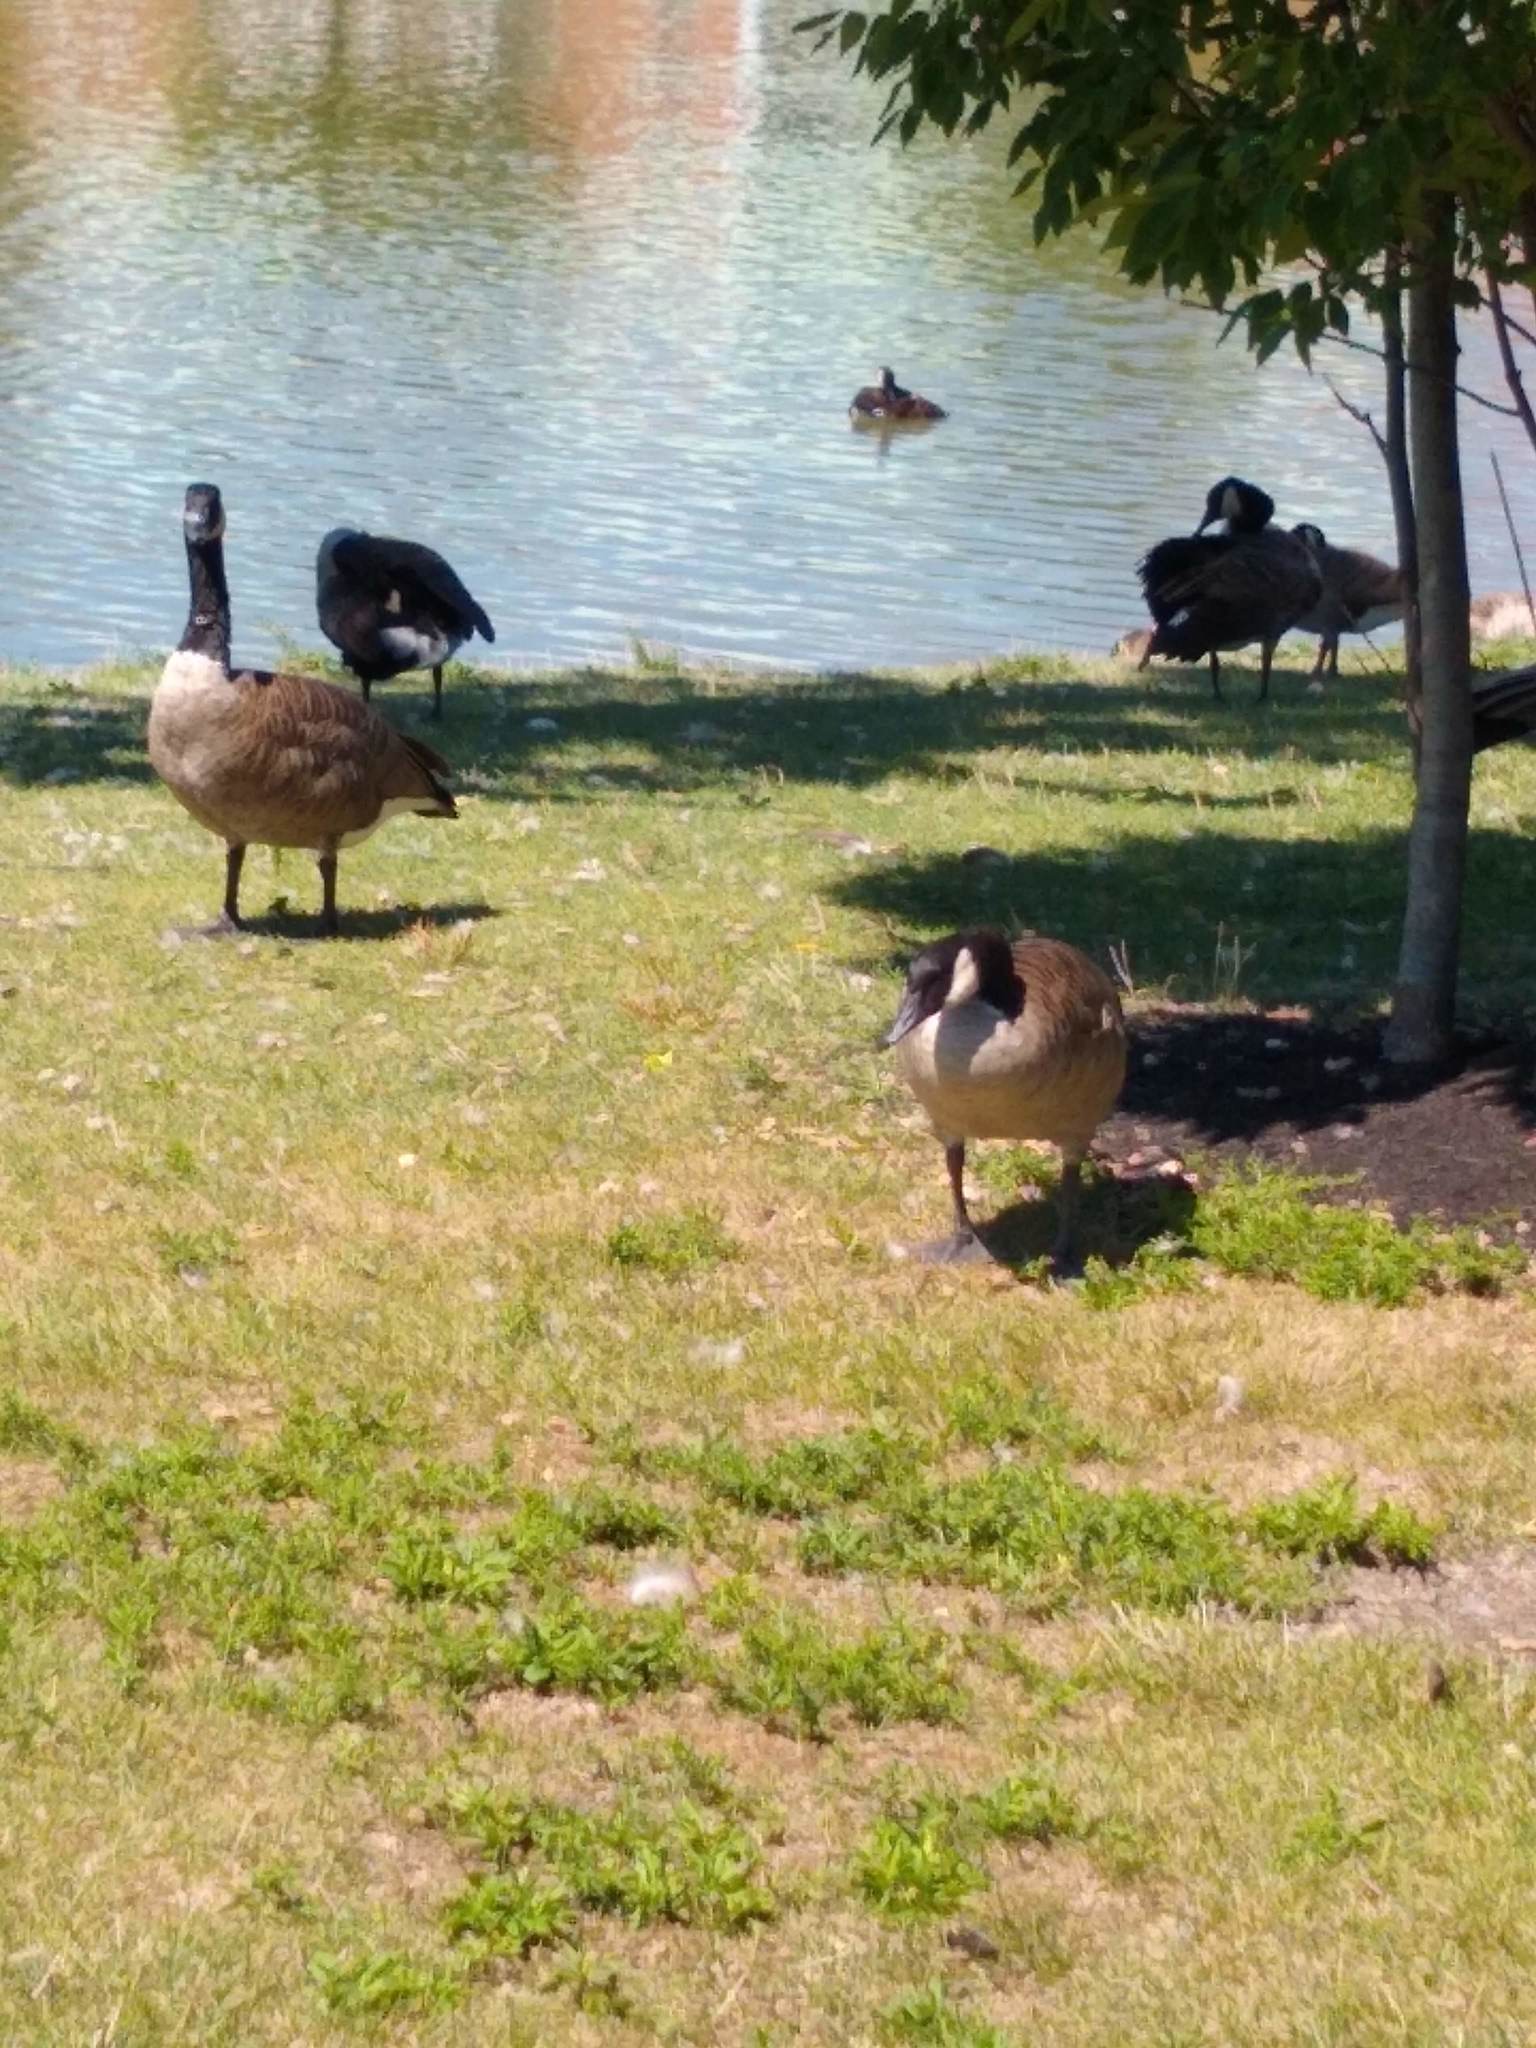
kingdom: Animalia
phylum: Chordata
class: Aves
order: Anseriformes
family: Anatidae
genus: Branta
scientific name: Branta canadensis
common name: Canada goose
